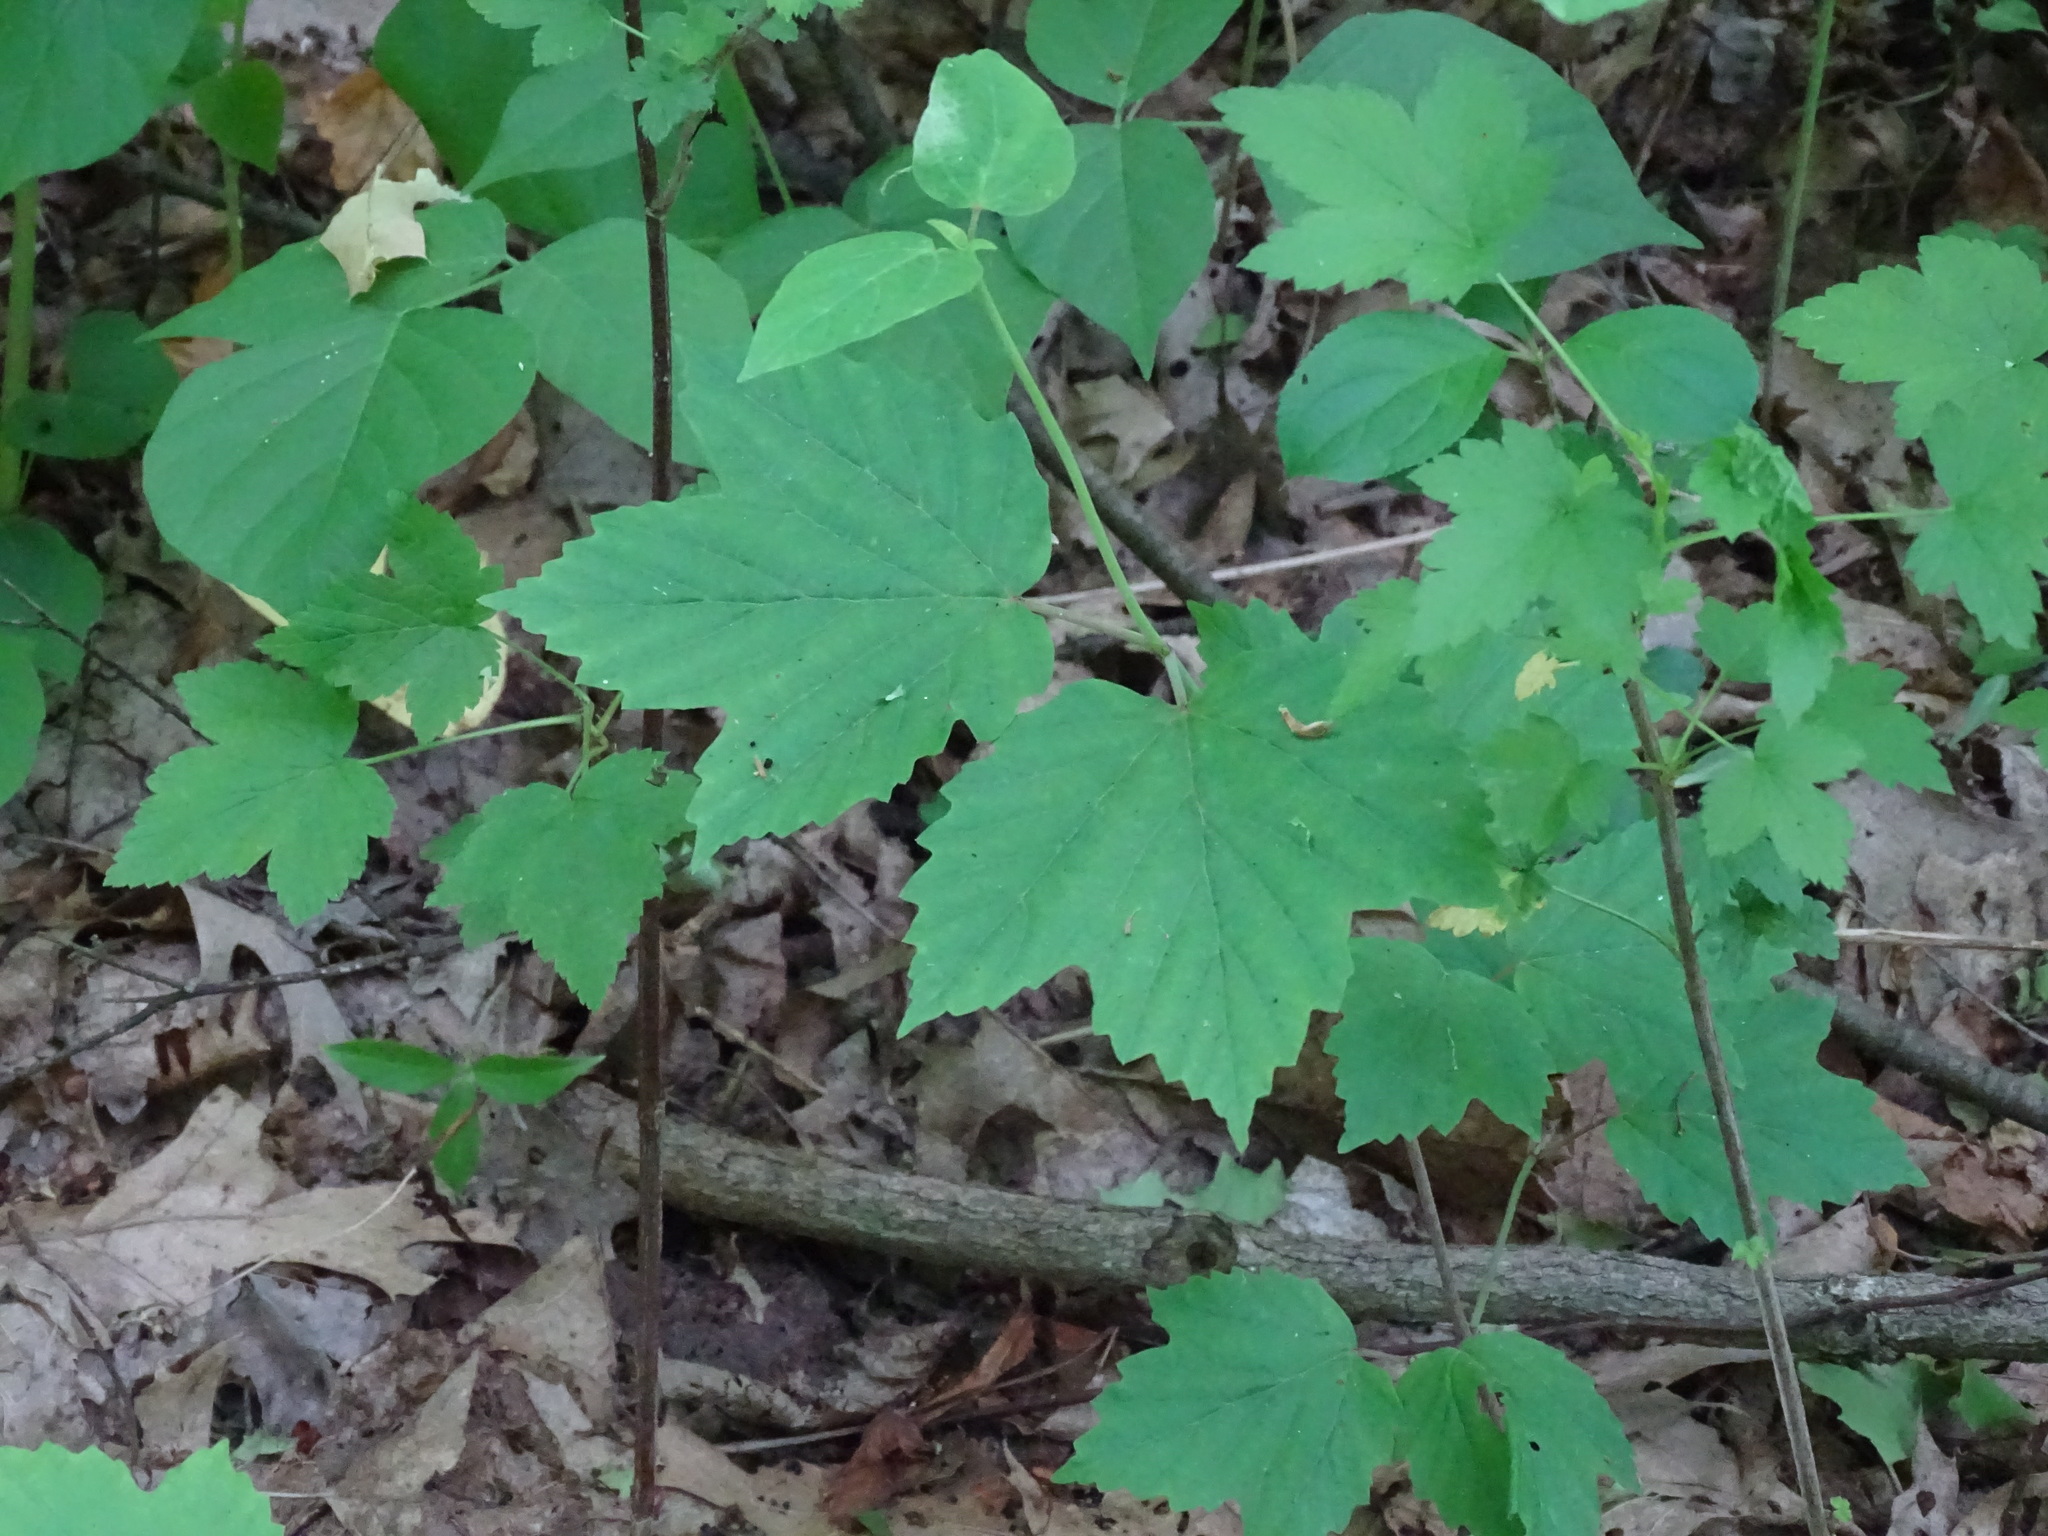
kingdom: Plantae
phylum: Tracheophyta
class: Magnoliopsida
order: Dipsacales
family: Viburnaceae
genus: Viburnum
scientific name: Viburnum acerifolium
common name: Dockmackie
